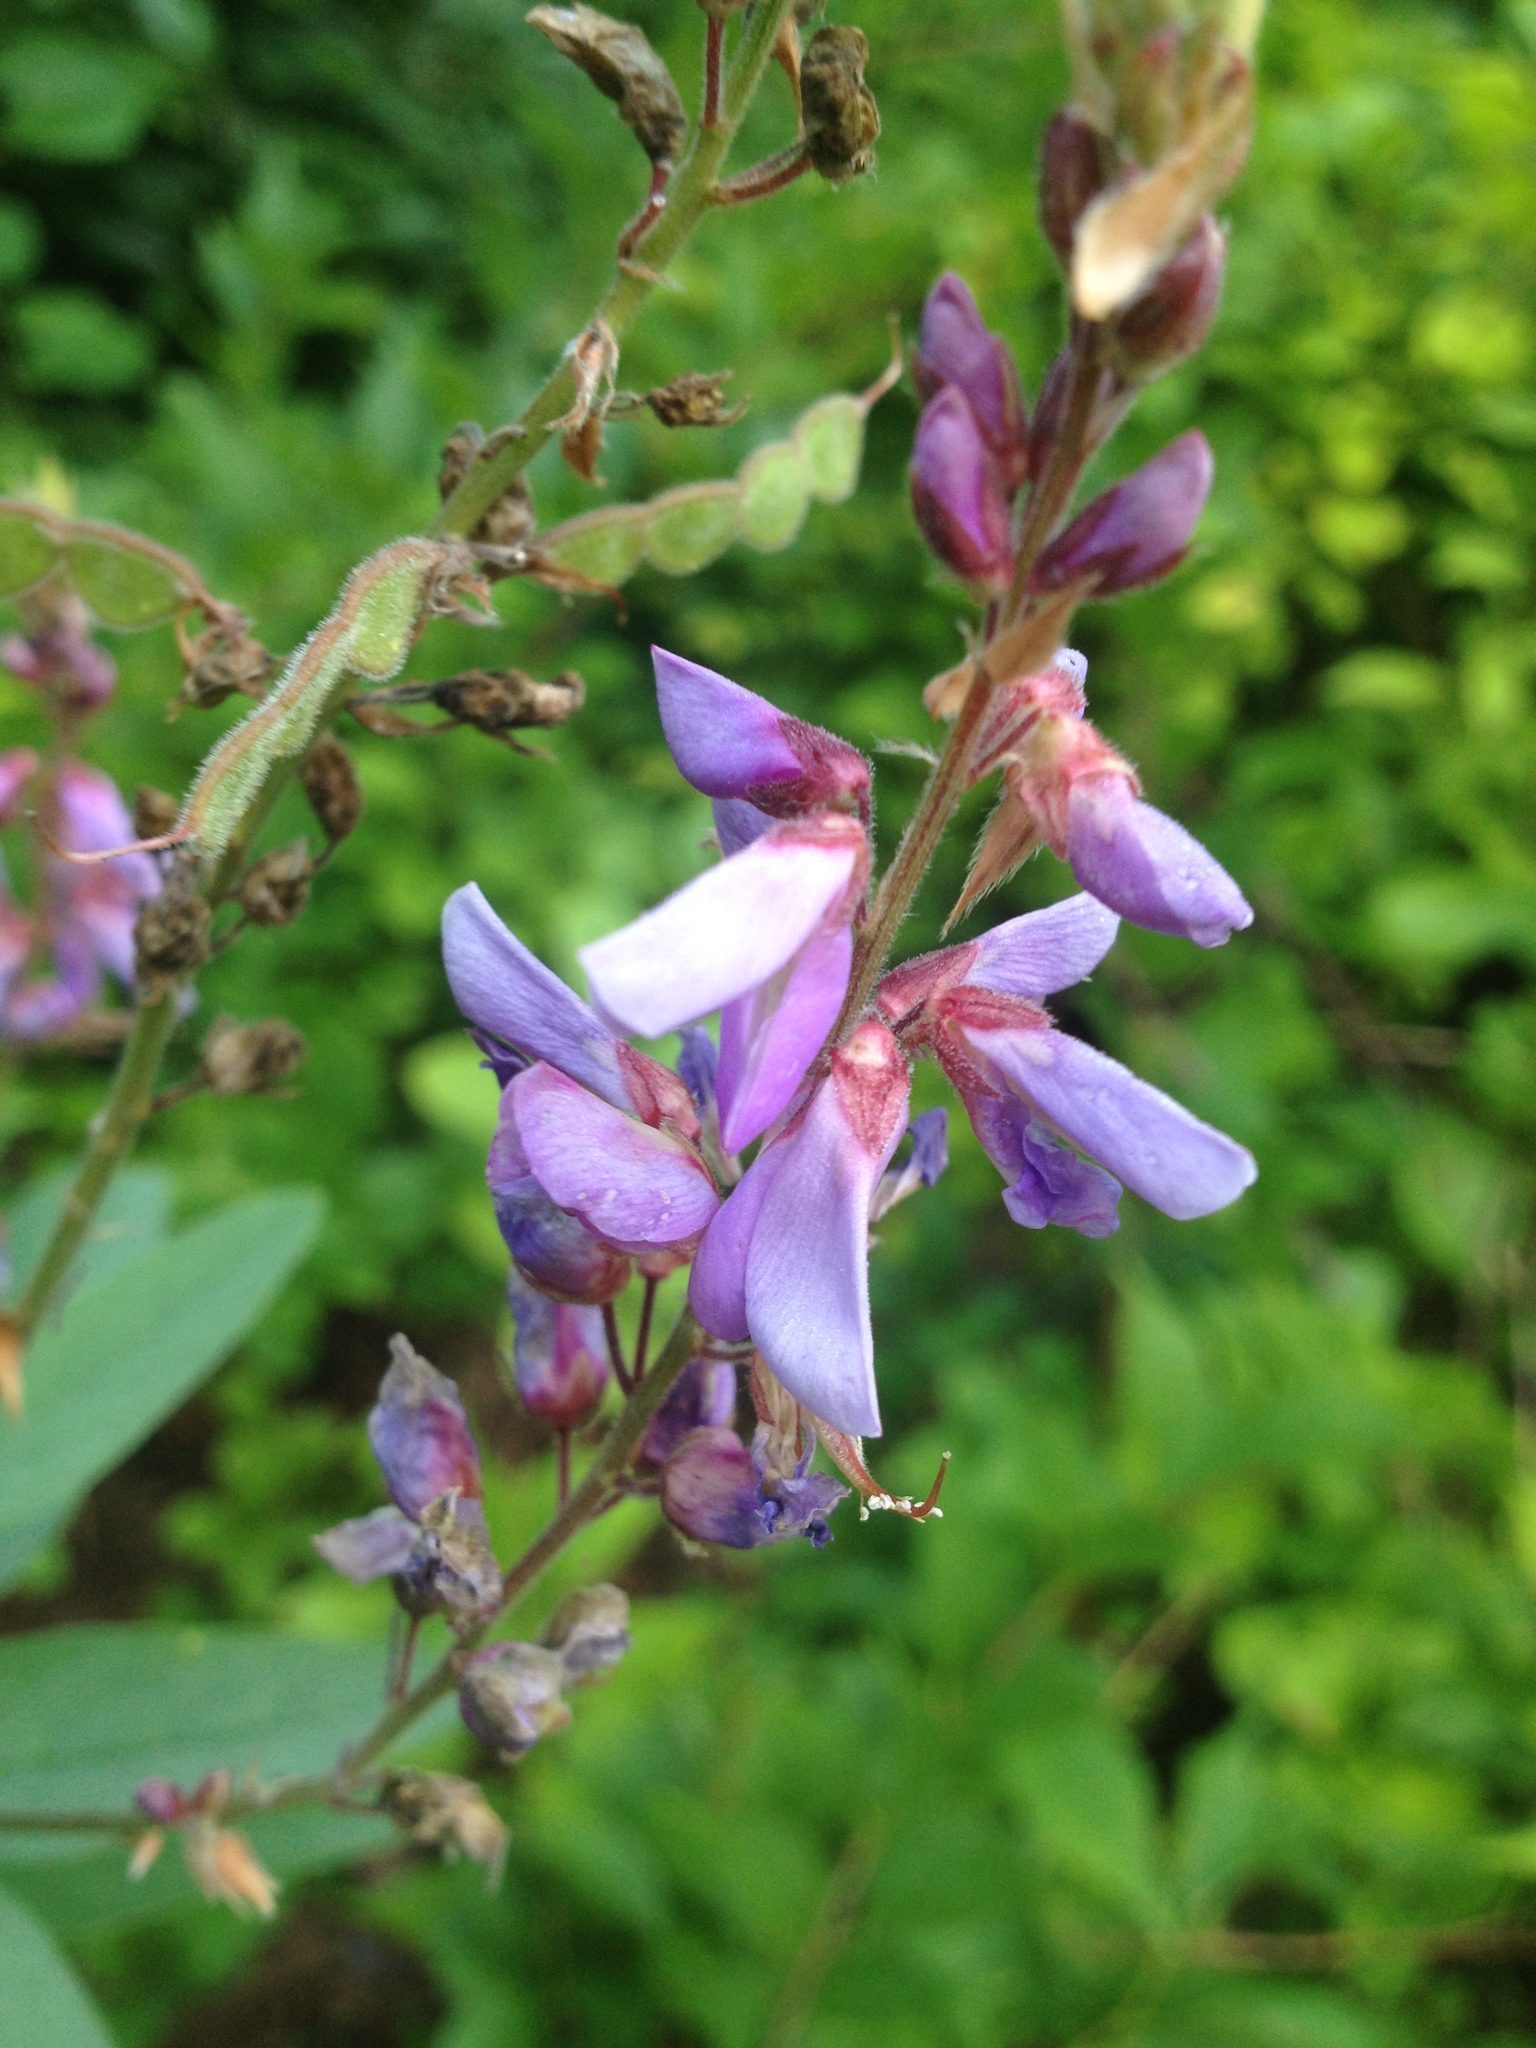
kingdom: Plantae
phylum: Tracheophyta
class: Magnoliopsida
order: Fabales
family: Fabaceae
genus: Desmodium
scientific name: Desmodium canadense
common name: Canada tick-trefoil
